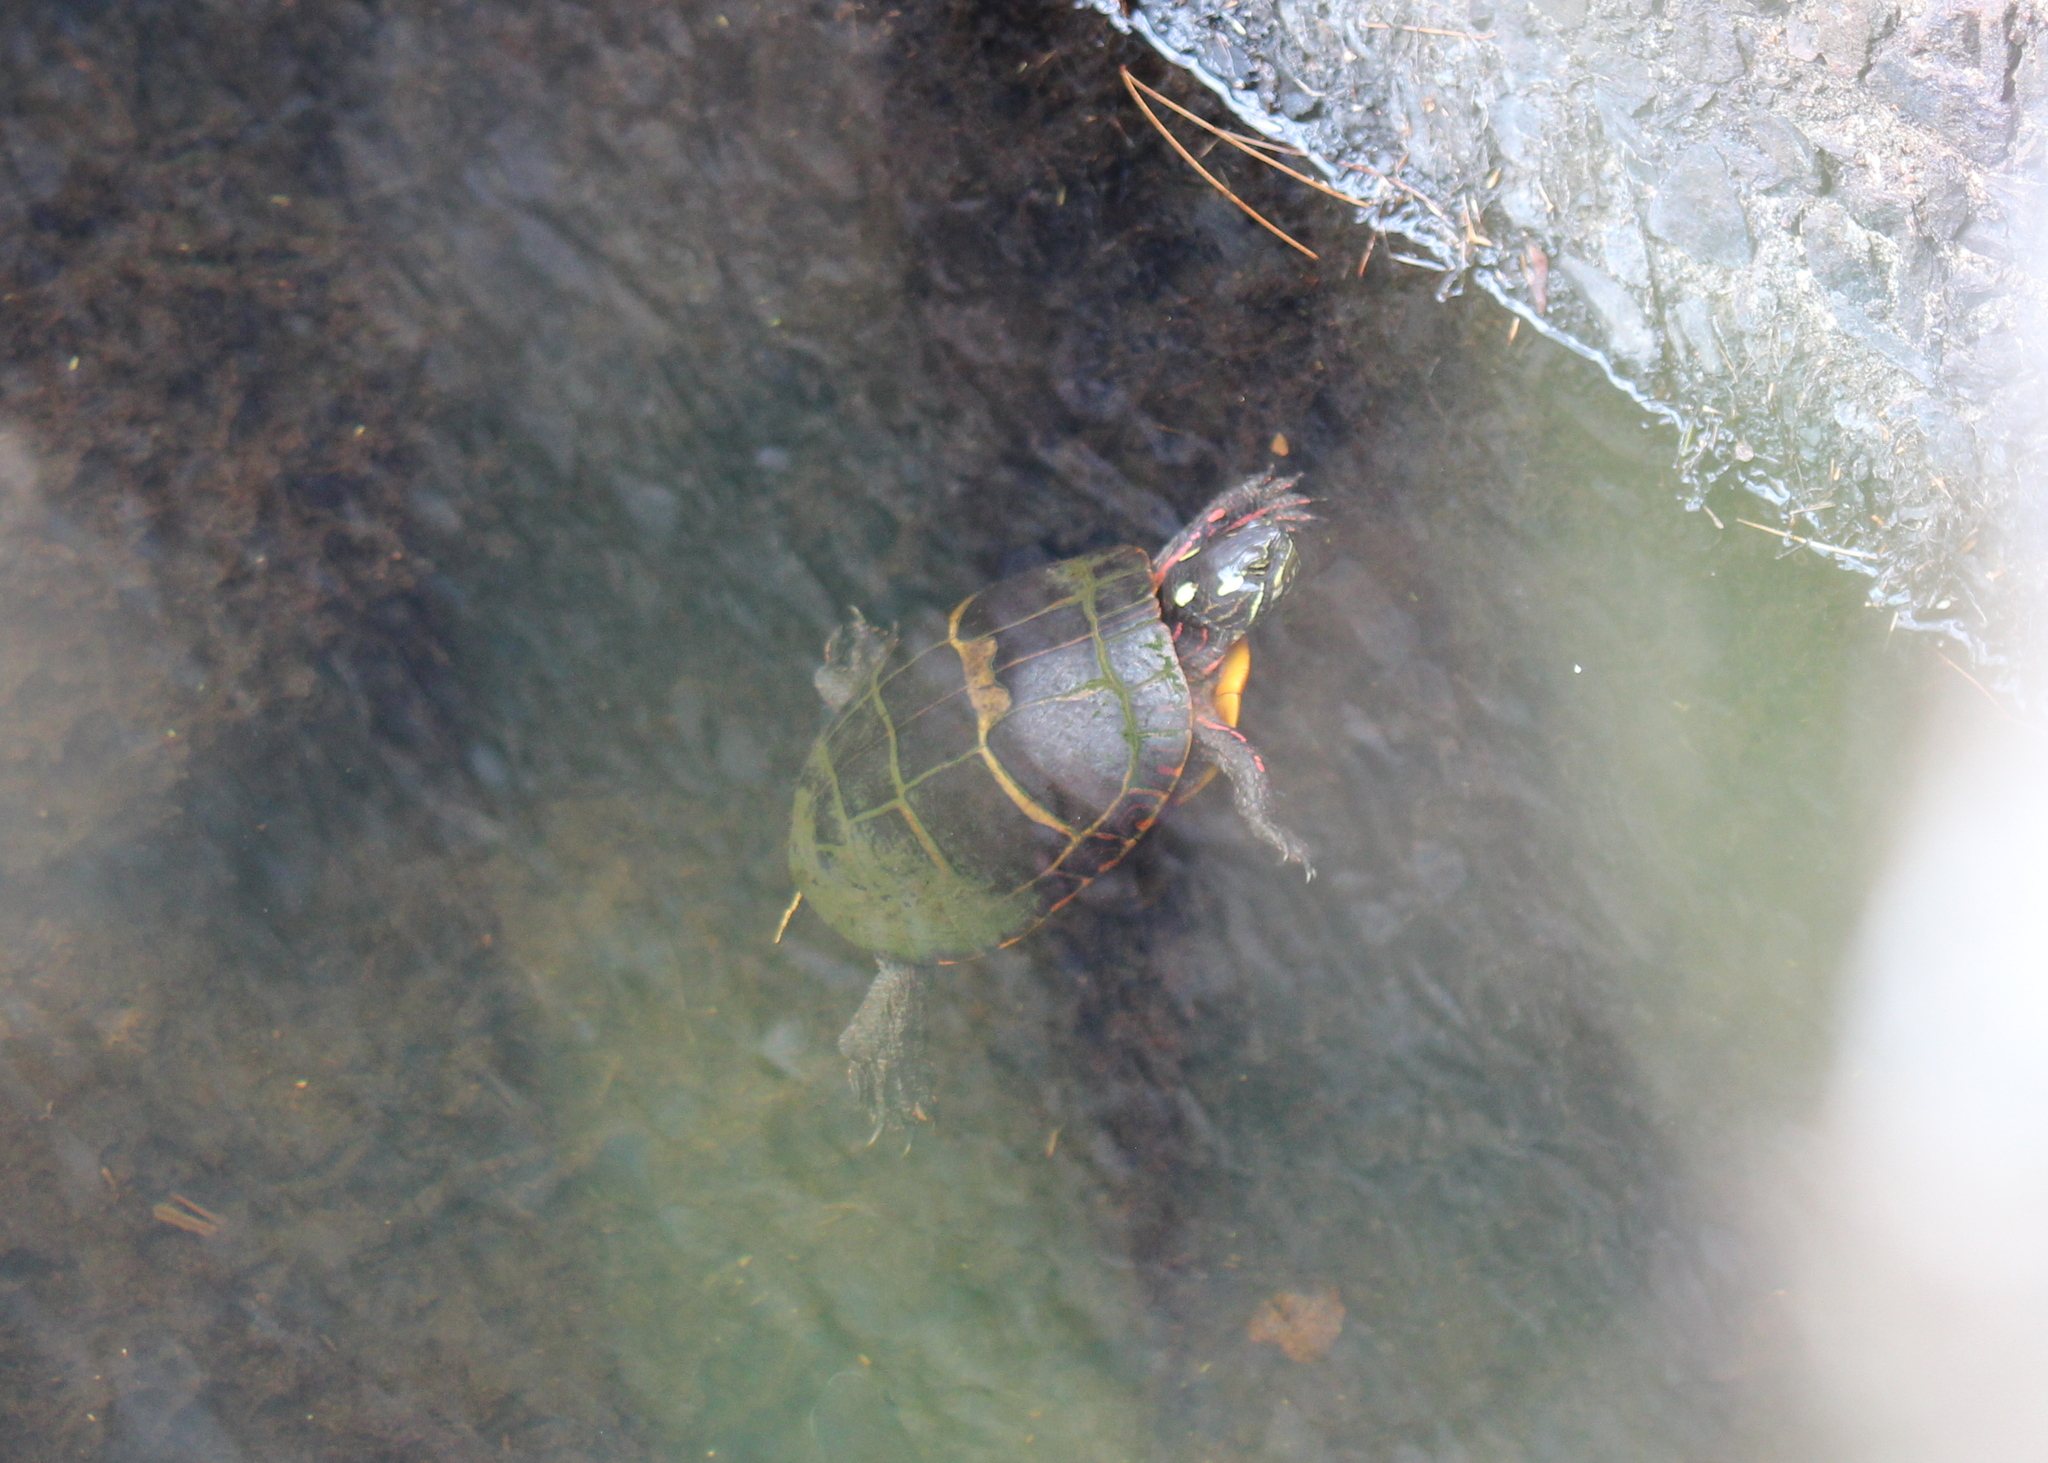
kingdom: Animalia
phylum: Chordata
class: Testudines
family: Emydidae
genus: Chrysemys
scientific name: Chrysemys picta
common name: Painted turtle
